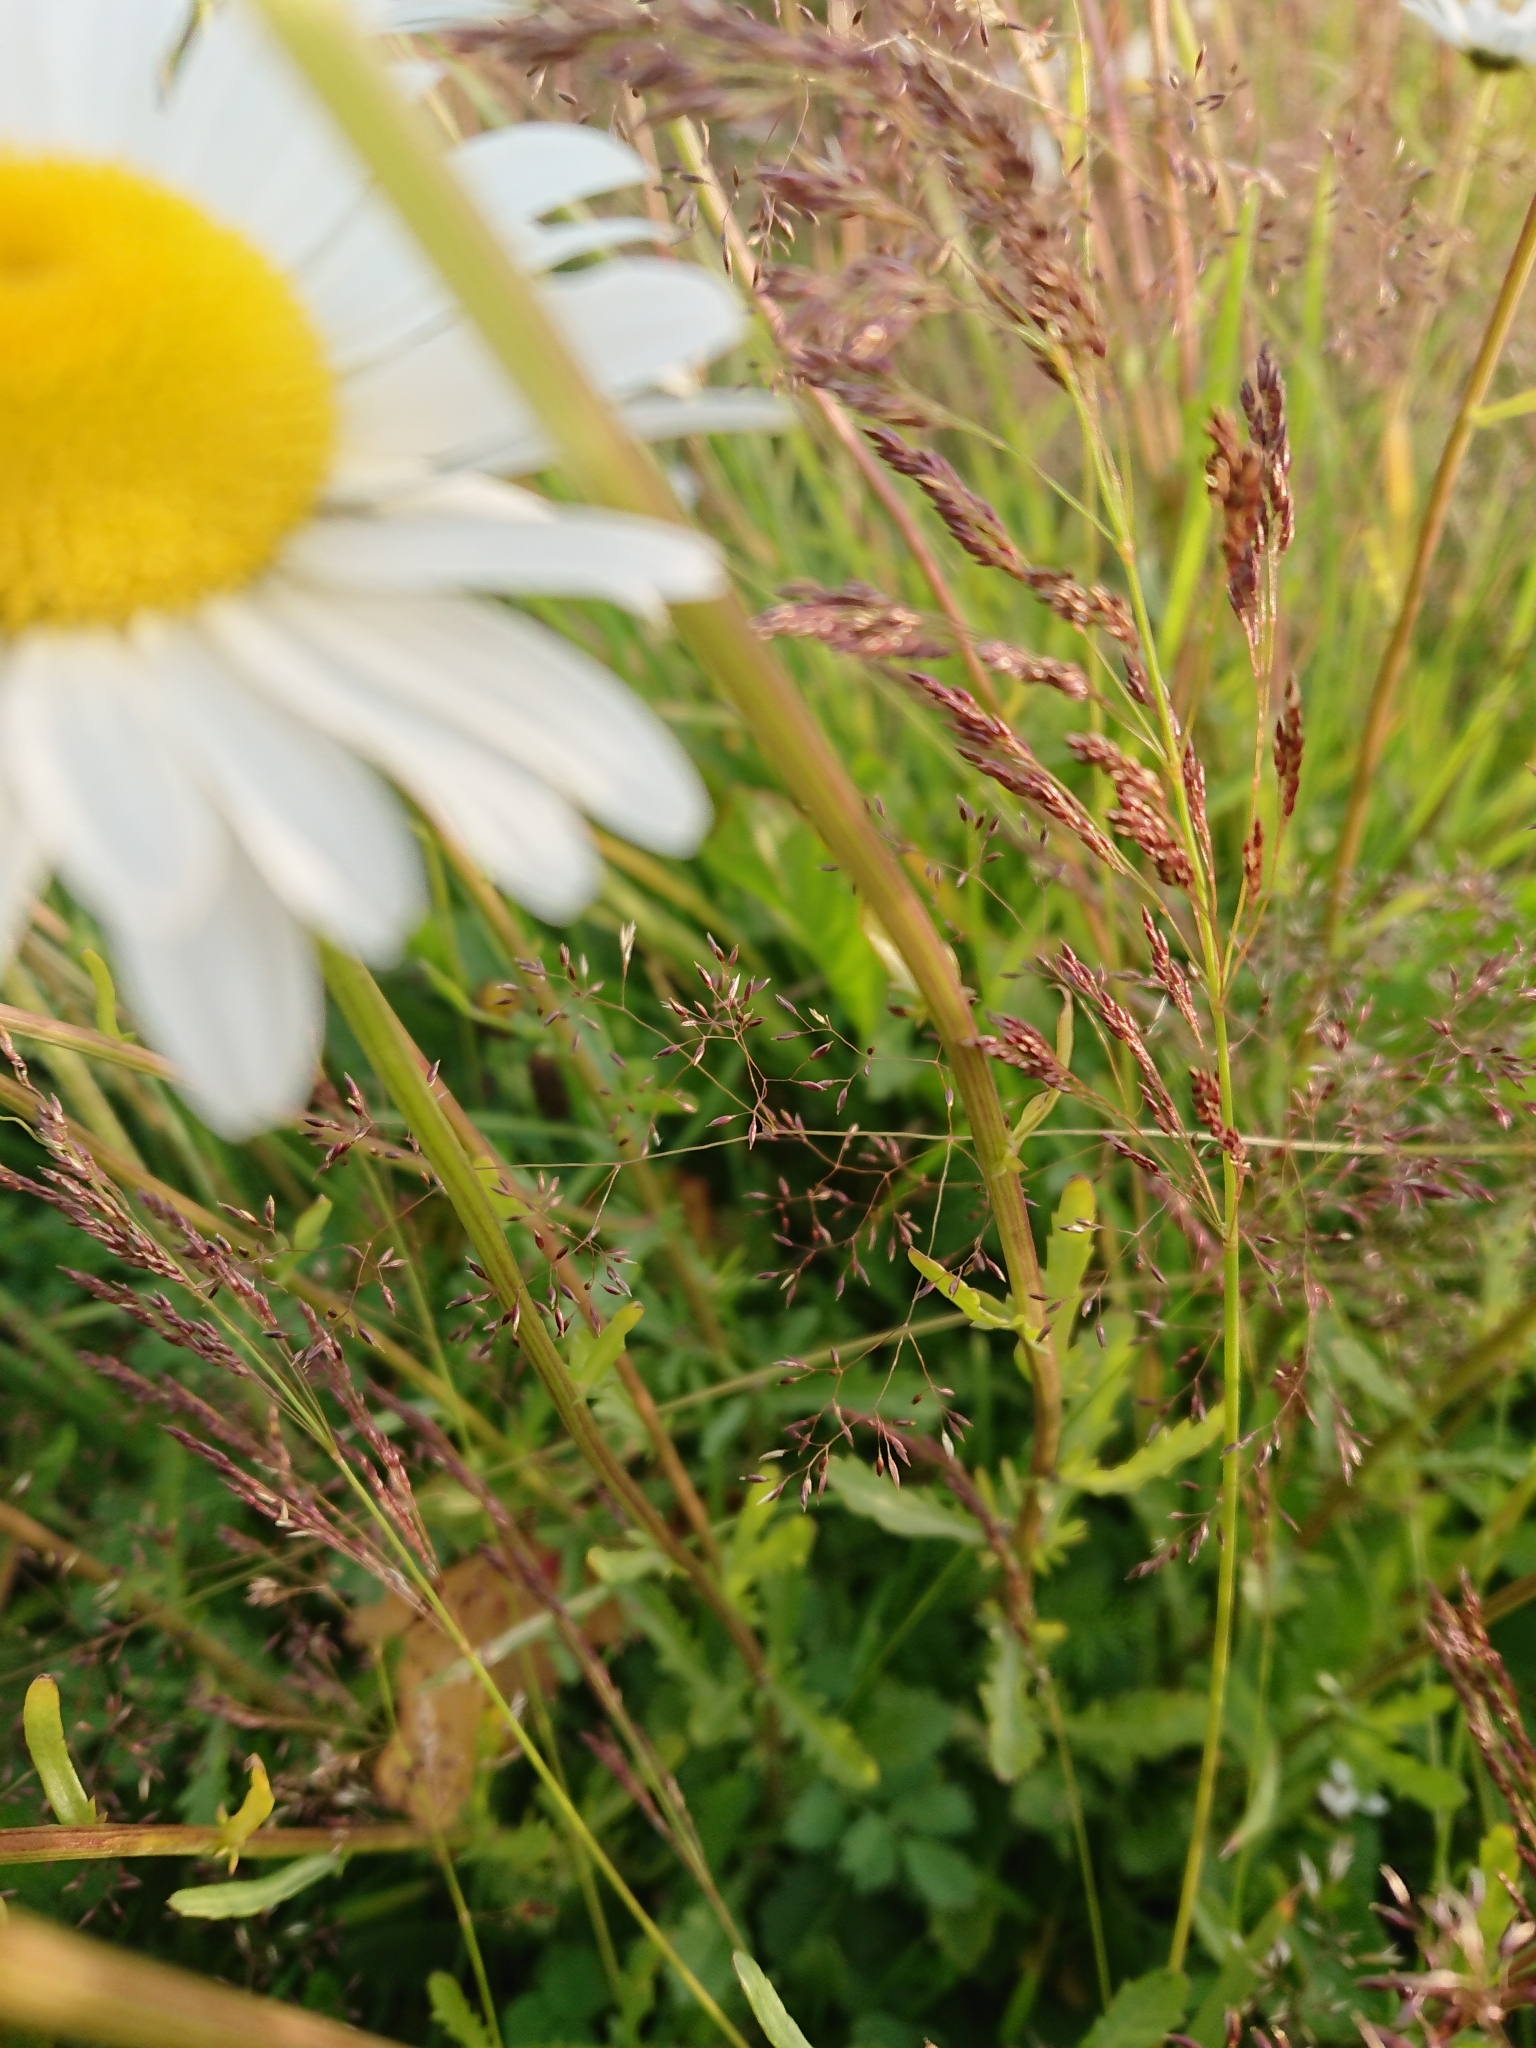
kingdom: Plantae
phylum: Tracheophyta
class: Magnoliopsida
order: Asterales
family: Asteraceae
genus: Leucanthemum
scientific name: Leucanthemum vulgare
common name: Oxeye daisy
